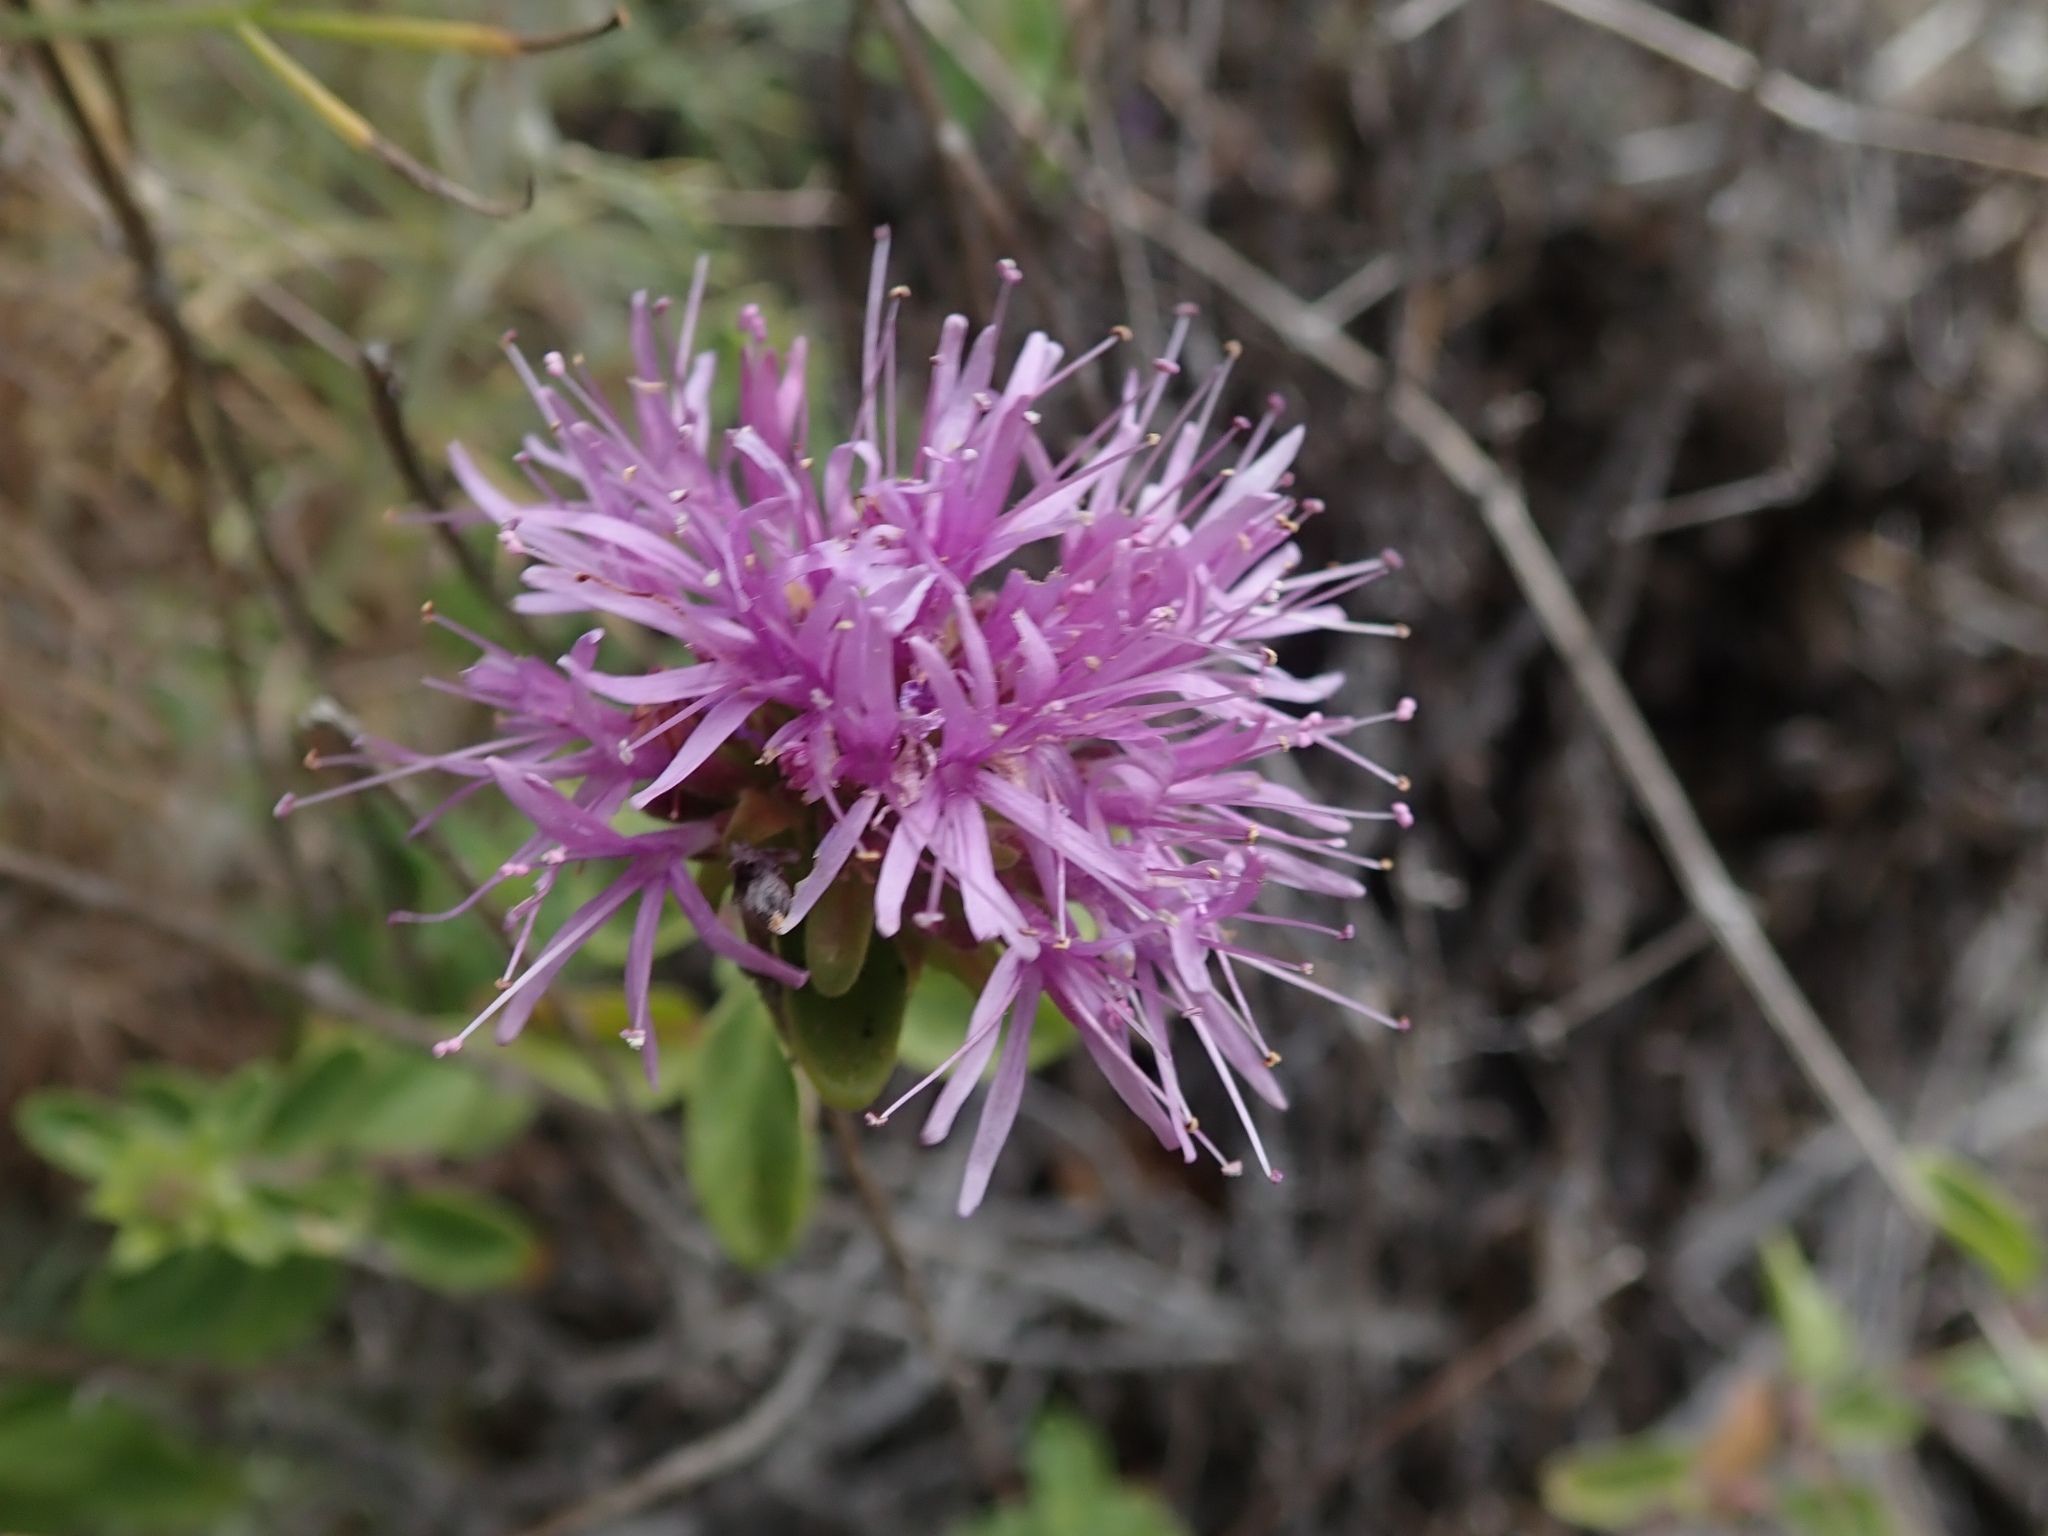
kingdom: Plantae
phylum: Tracheophyta
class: Magnoliopsida
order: Lamiales
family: Lamiaceae
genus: Monardella
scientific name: Monardella odoratissima
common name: Pacific monardella
